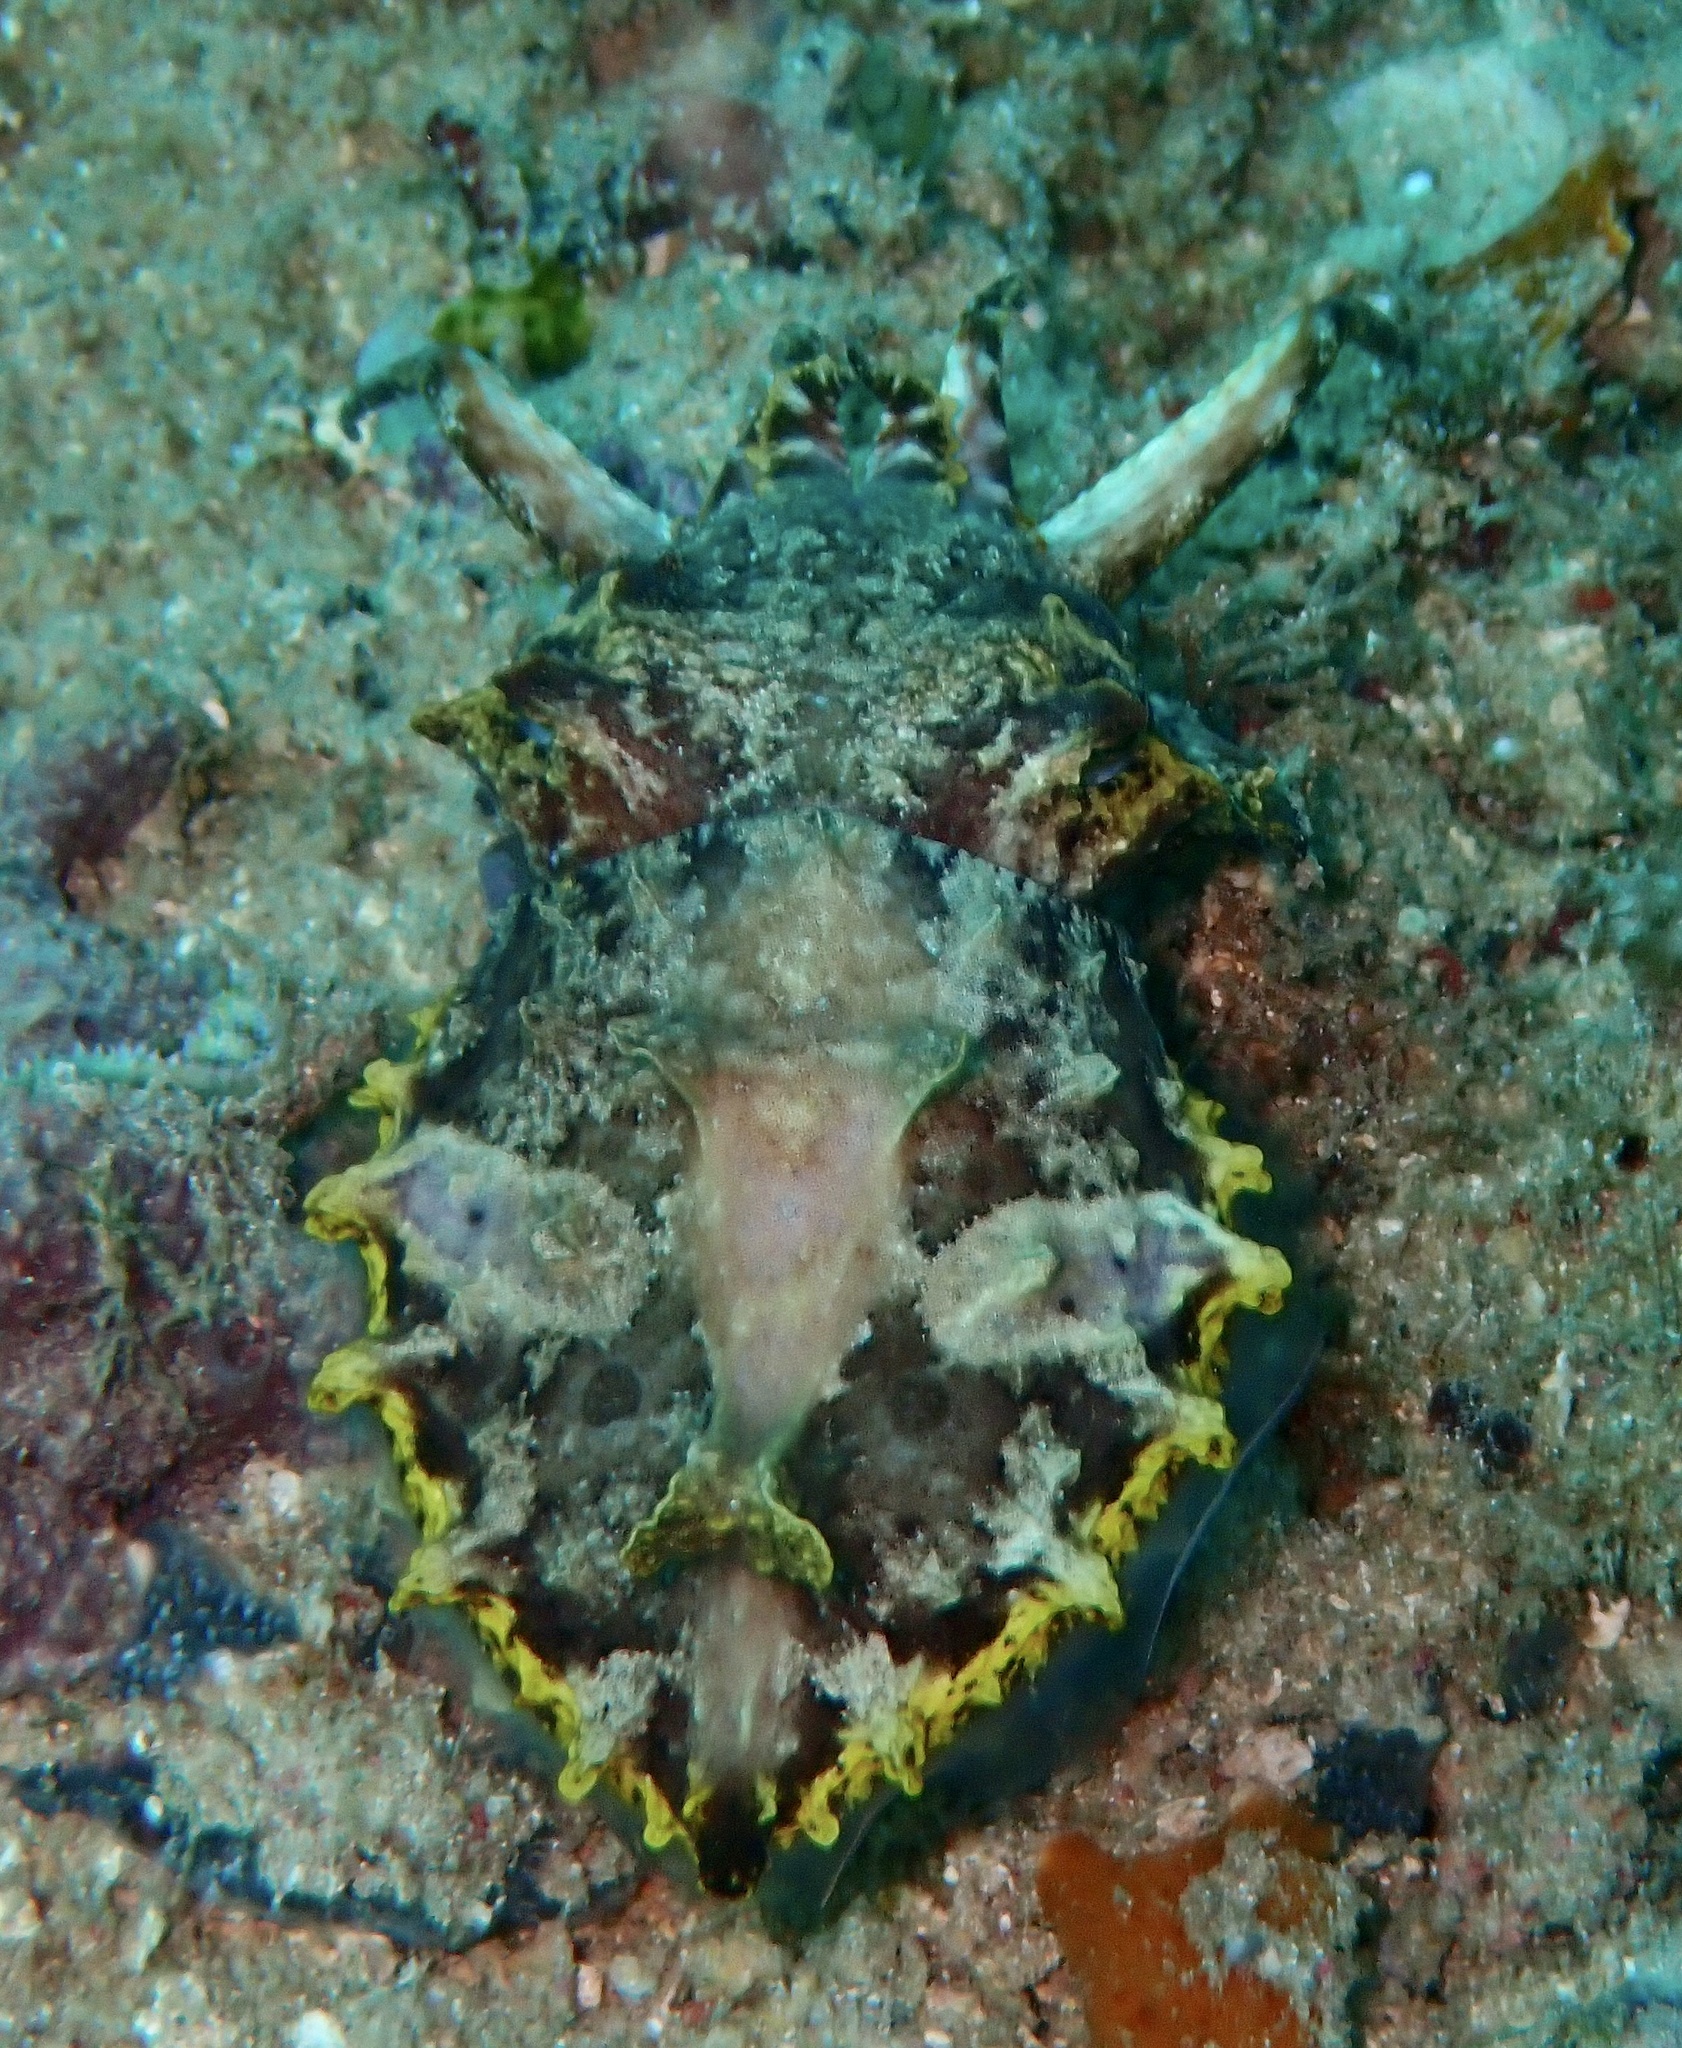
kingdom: Animalia
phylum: Mollusca
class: Cephalopoda
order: Sepiida
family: Sepiidae
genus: Ascarosepion
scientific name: Ascarosepion pfefferi
